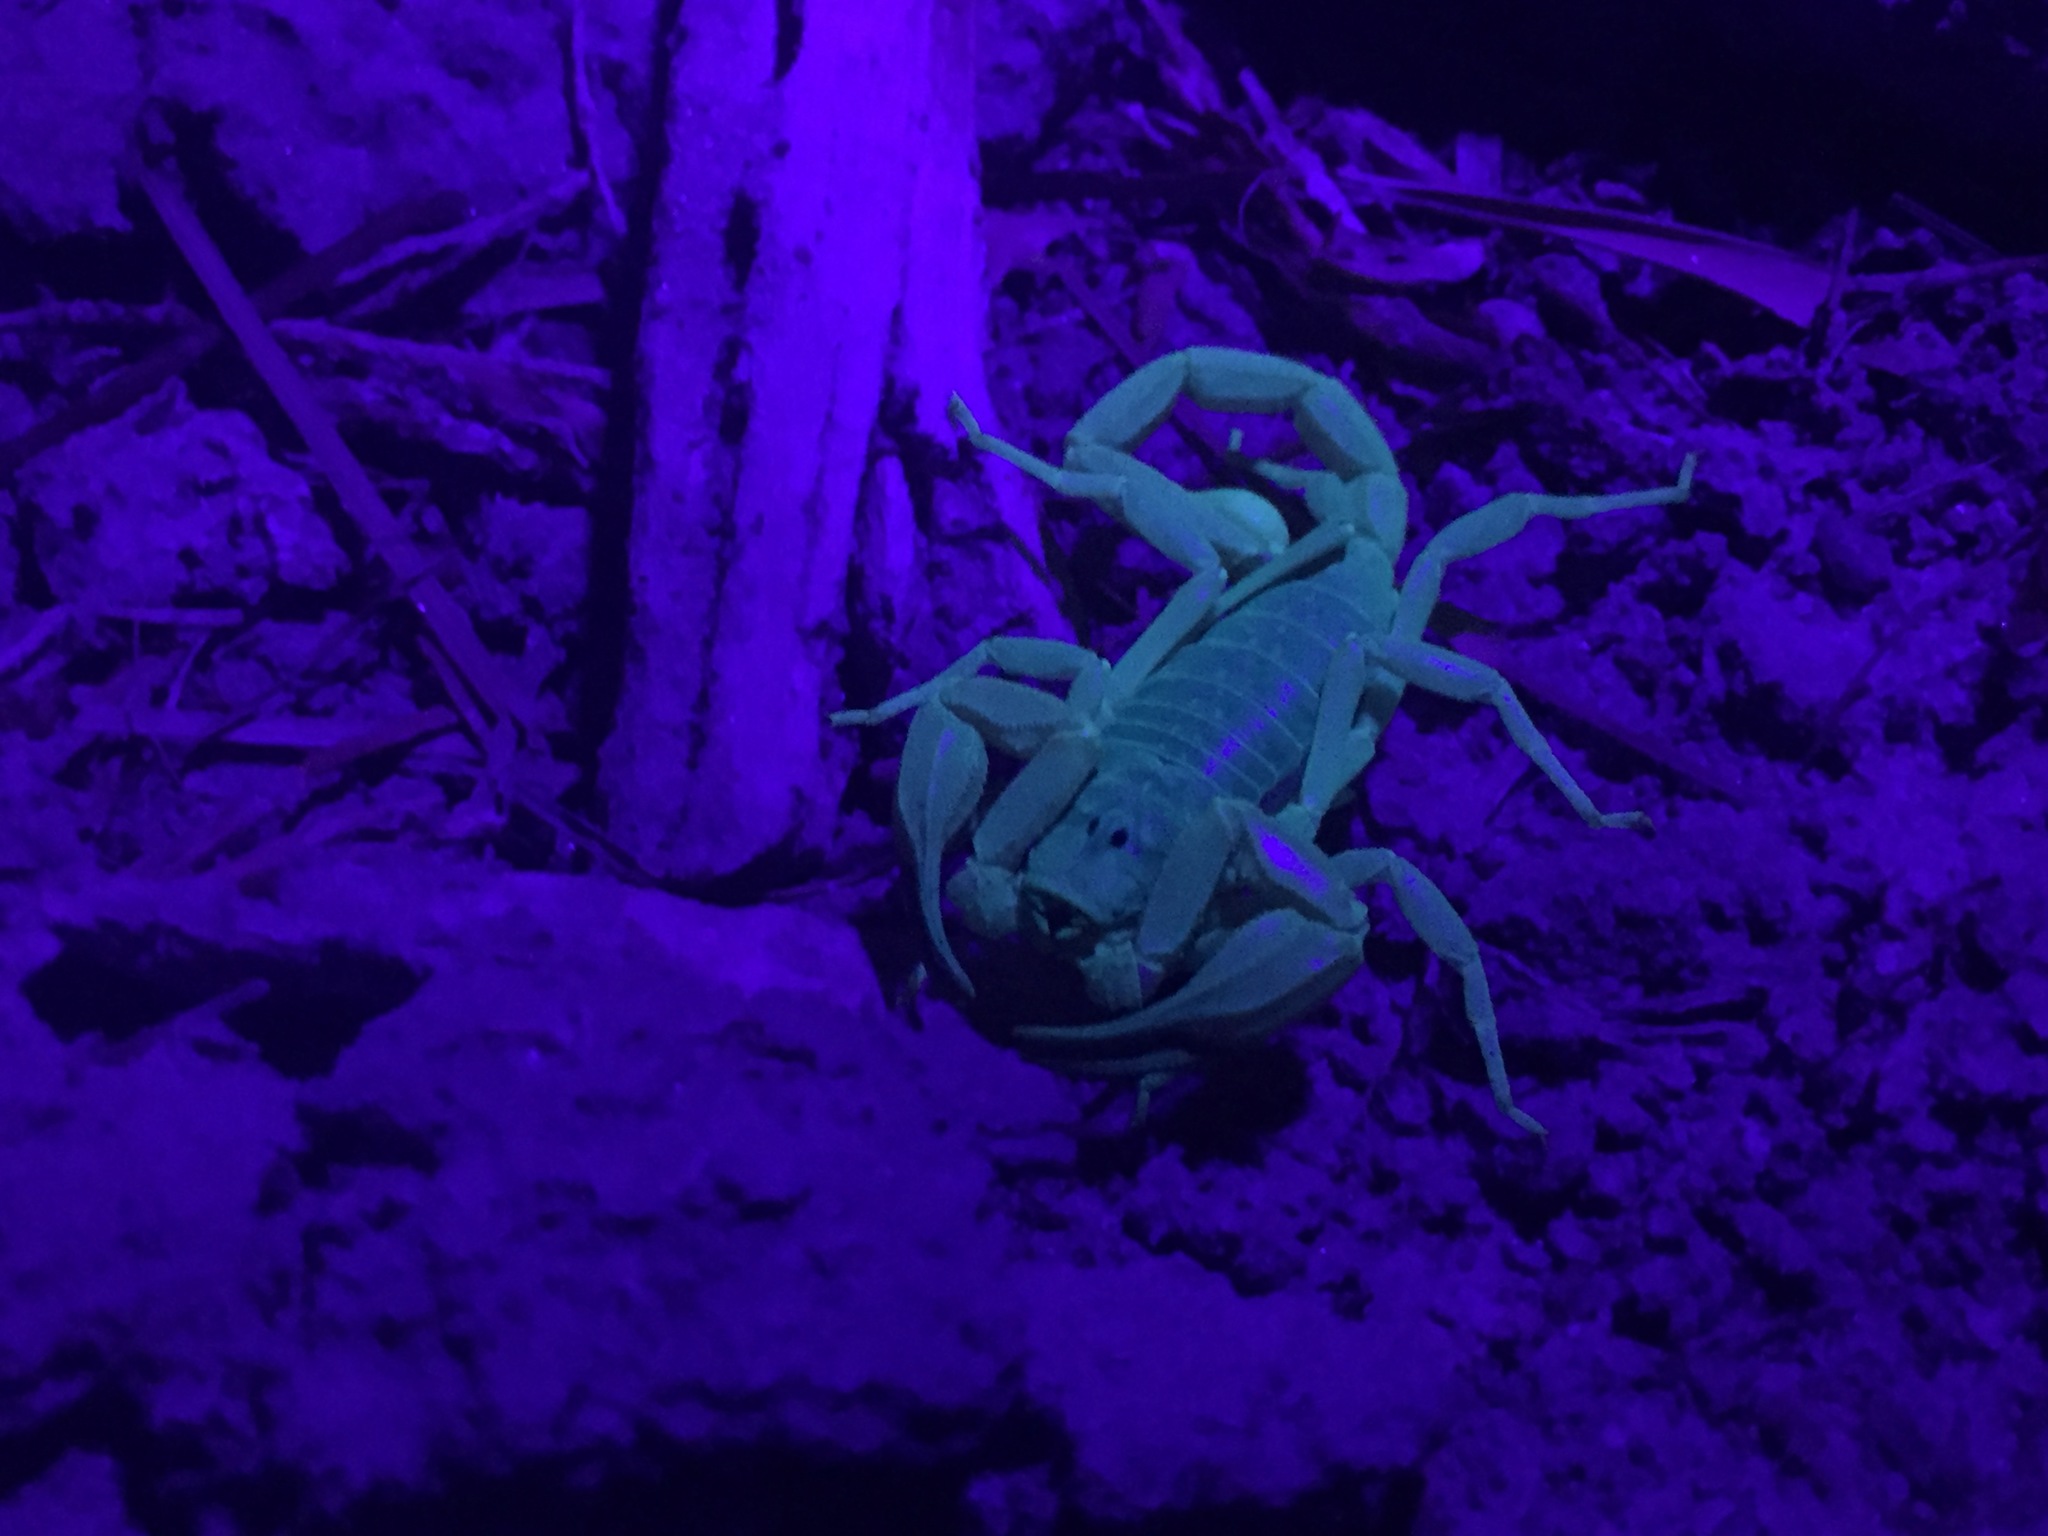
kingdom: Animalia
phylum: Arthropoda
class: Arachnida
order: Scorpiones
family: Vaejovidae
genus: Smeringurus
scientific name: Smeringurus vachoni
